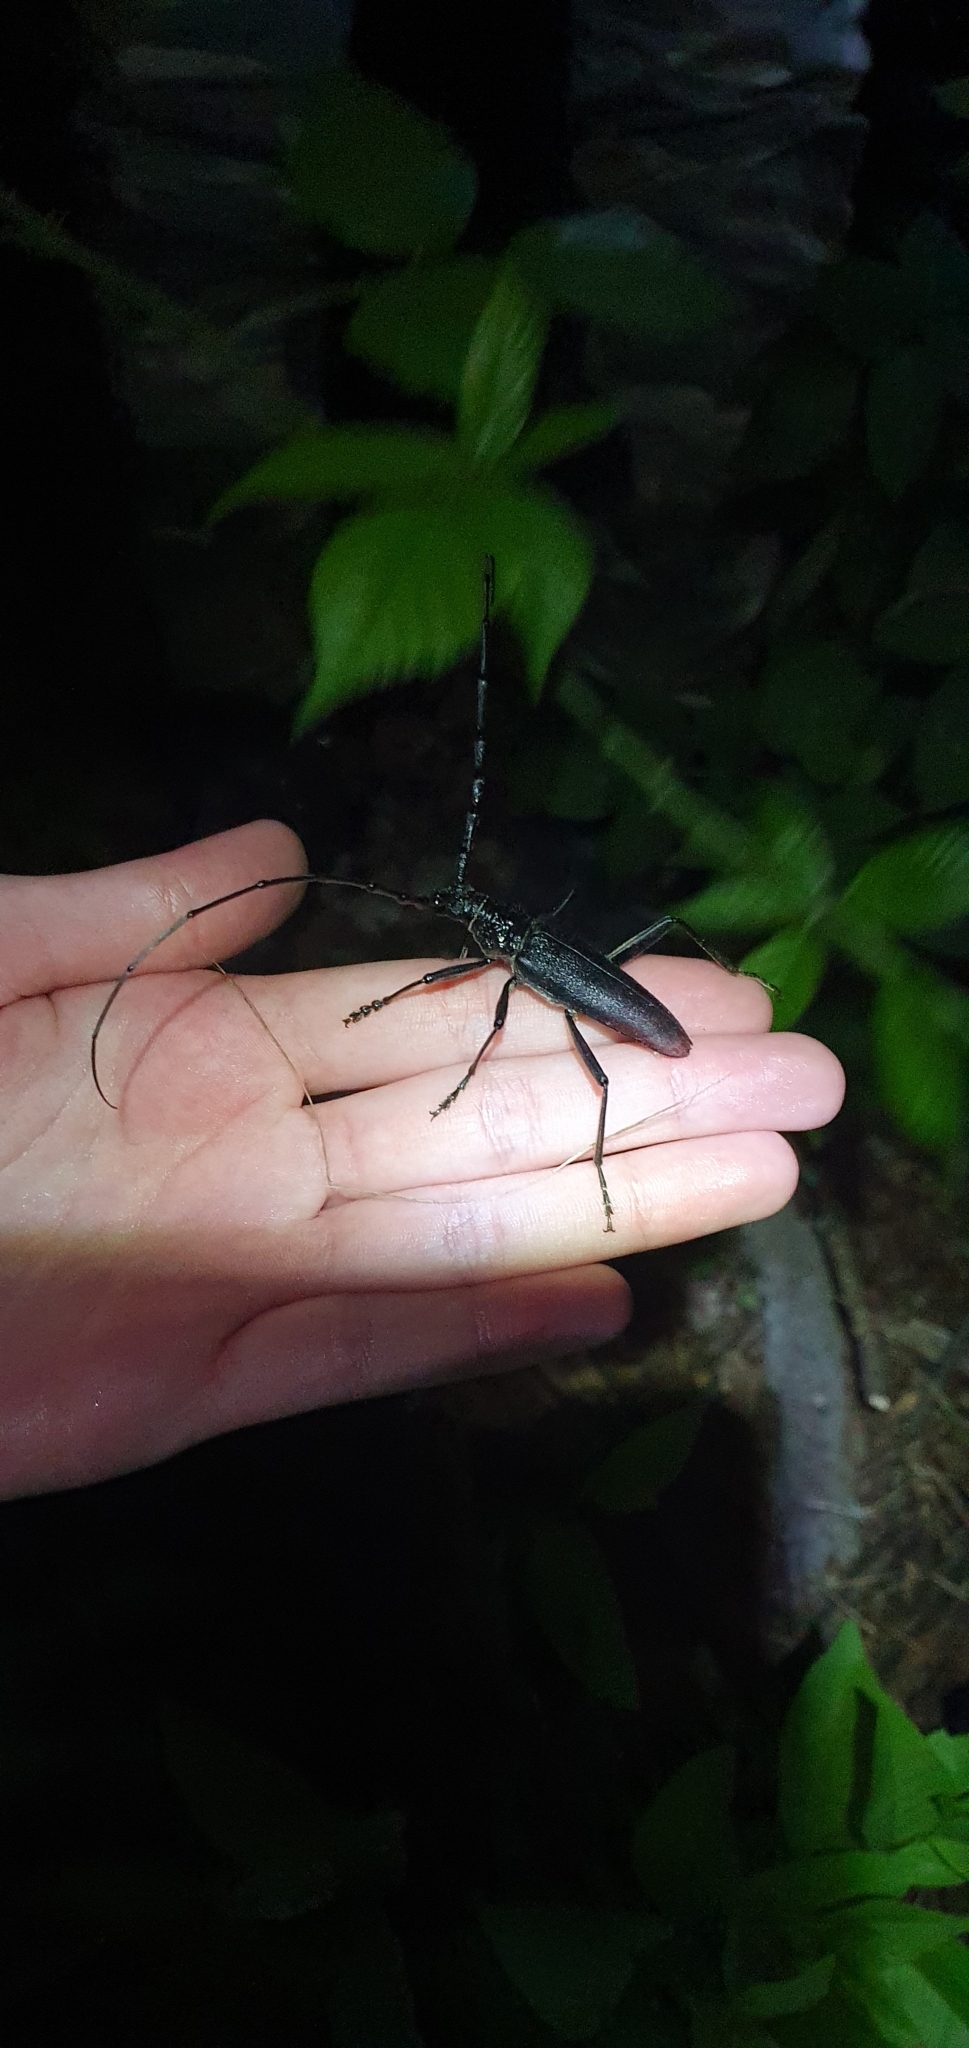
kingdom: Animalia
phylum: Arthropoda
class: Insecta
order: Coleoptera
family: Cerambycidae
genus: Cerambyx
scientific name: Cerambyx cerdo
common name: Cerambyx longicorn
